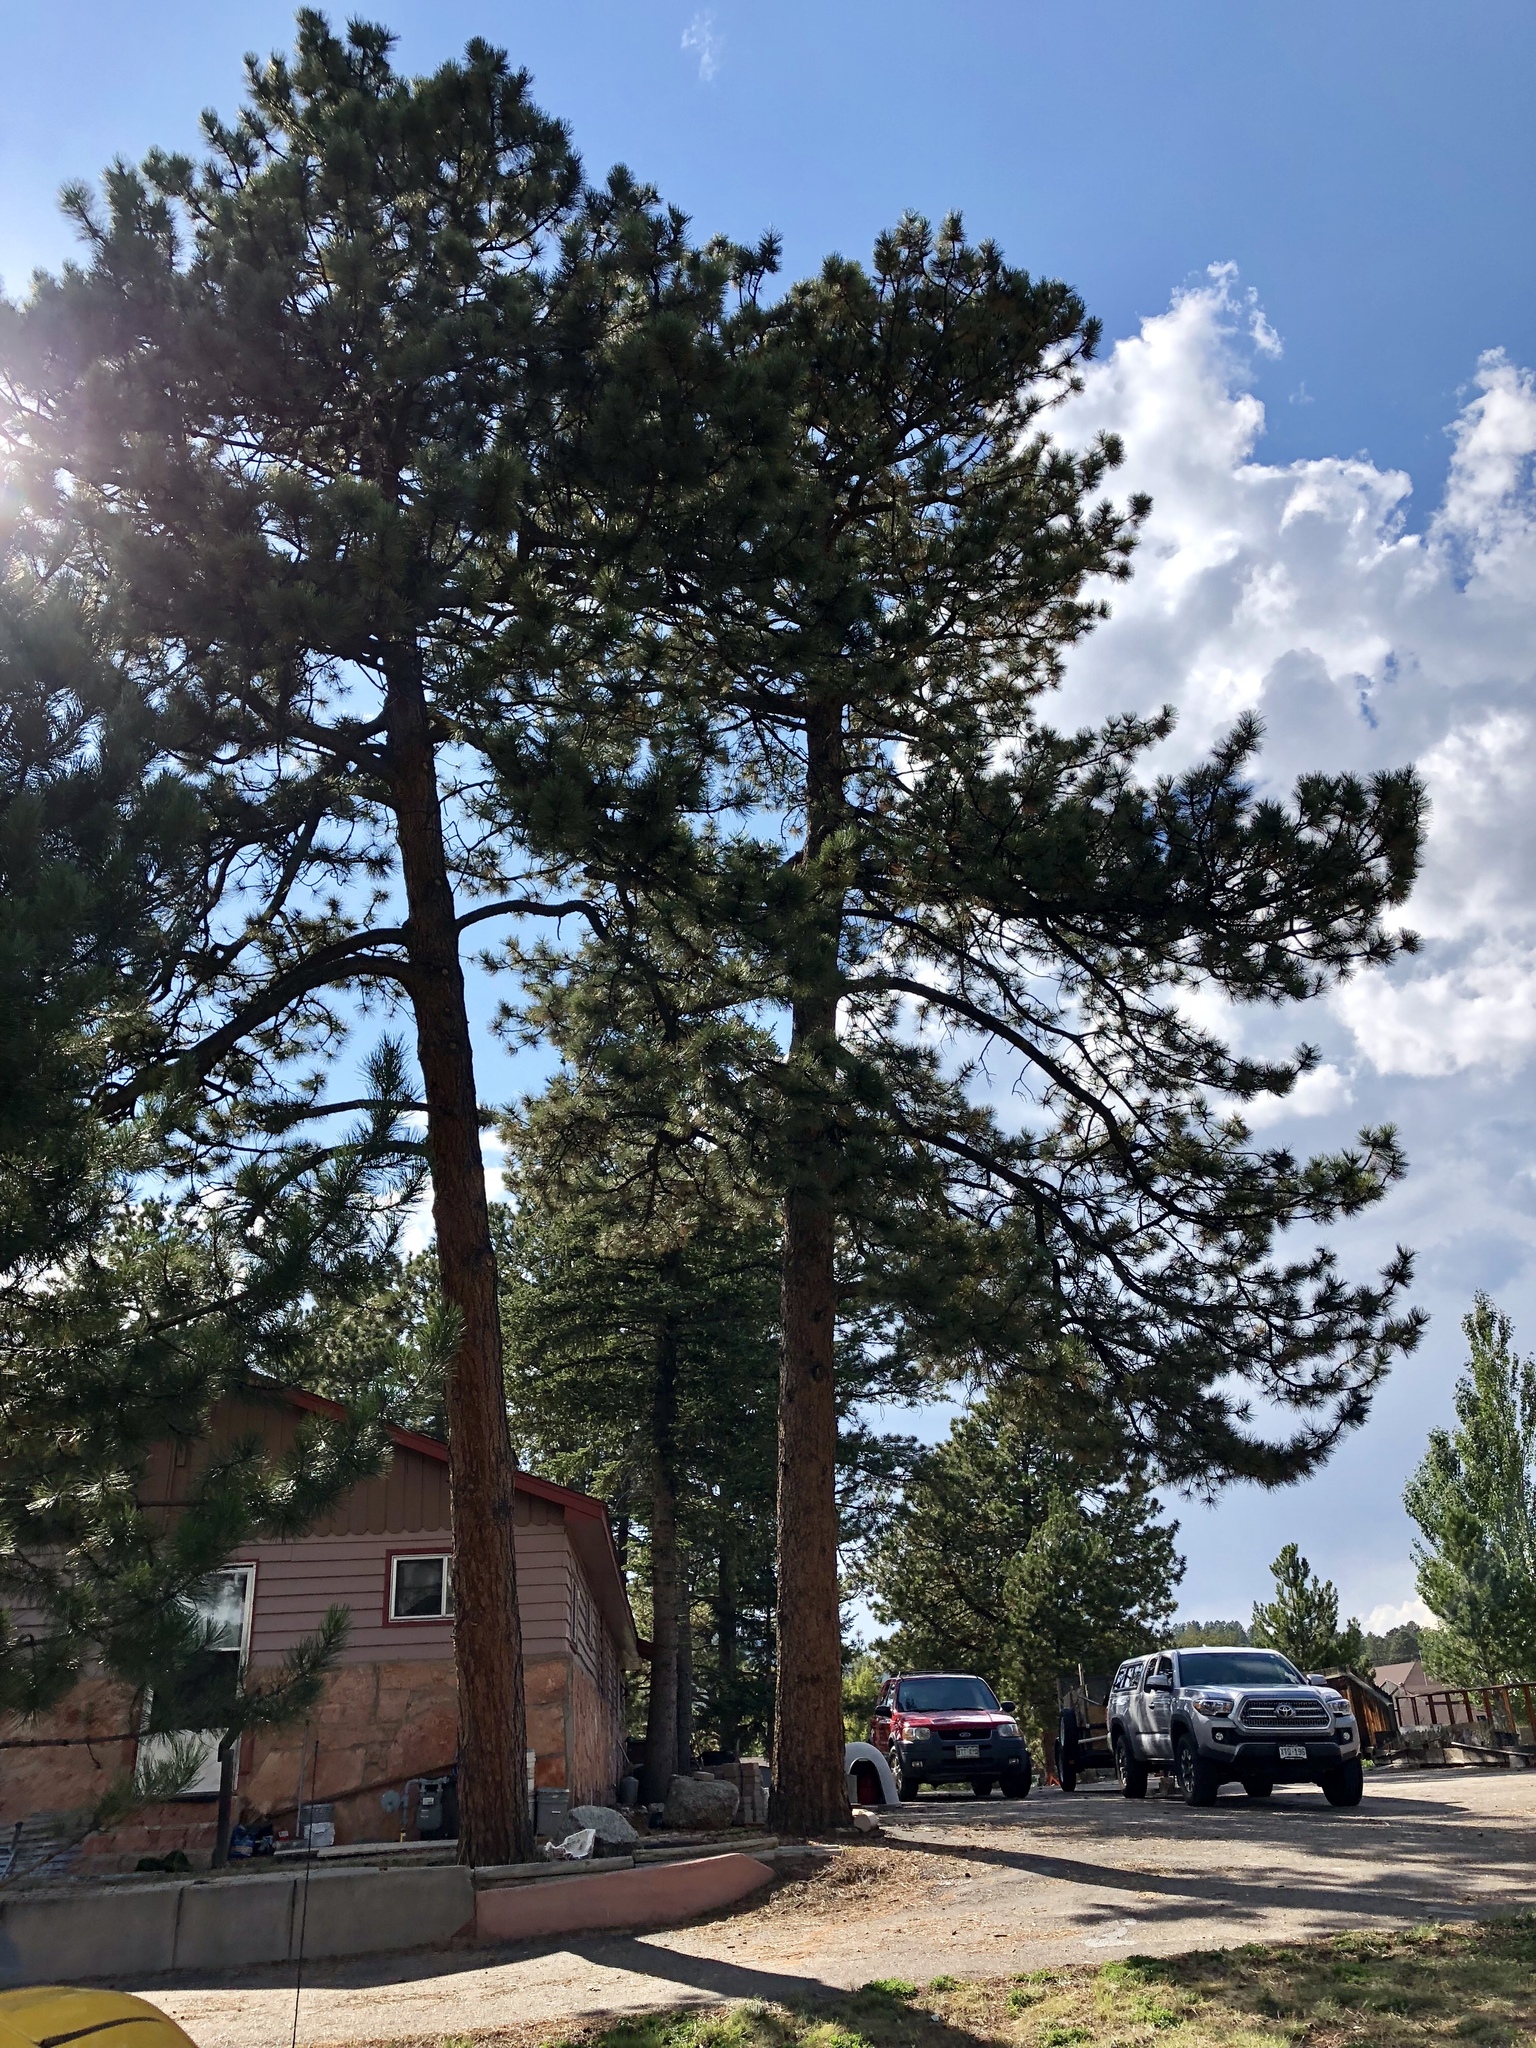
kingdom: Plantae
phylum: Tracheophyta
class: Pinopsida
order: Pinales
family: Pinaceae
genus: Pinus
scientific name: Pinus ponderosa
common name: Western yellow-pine
